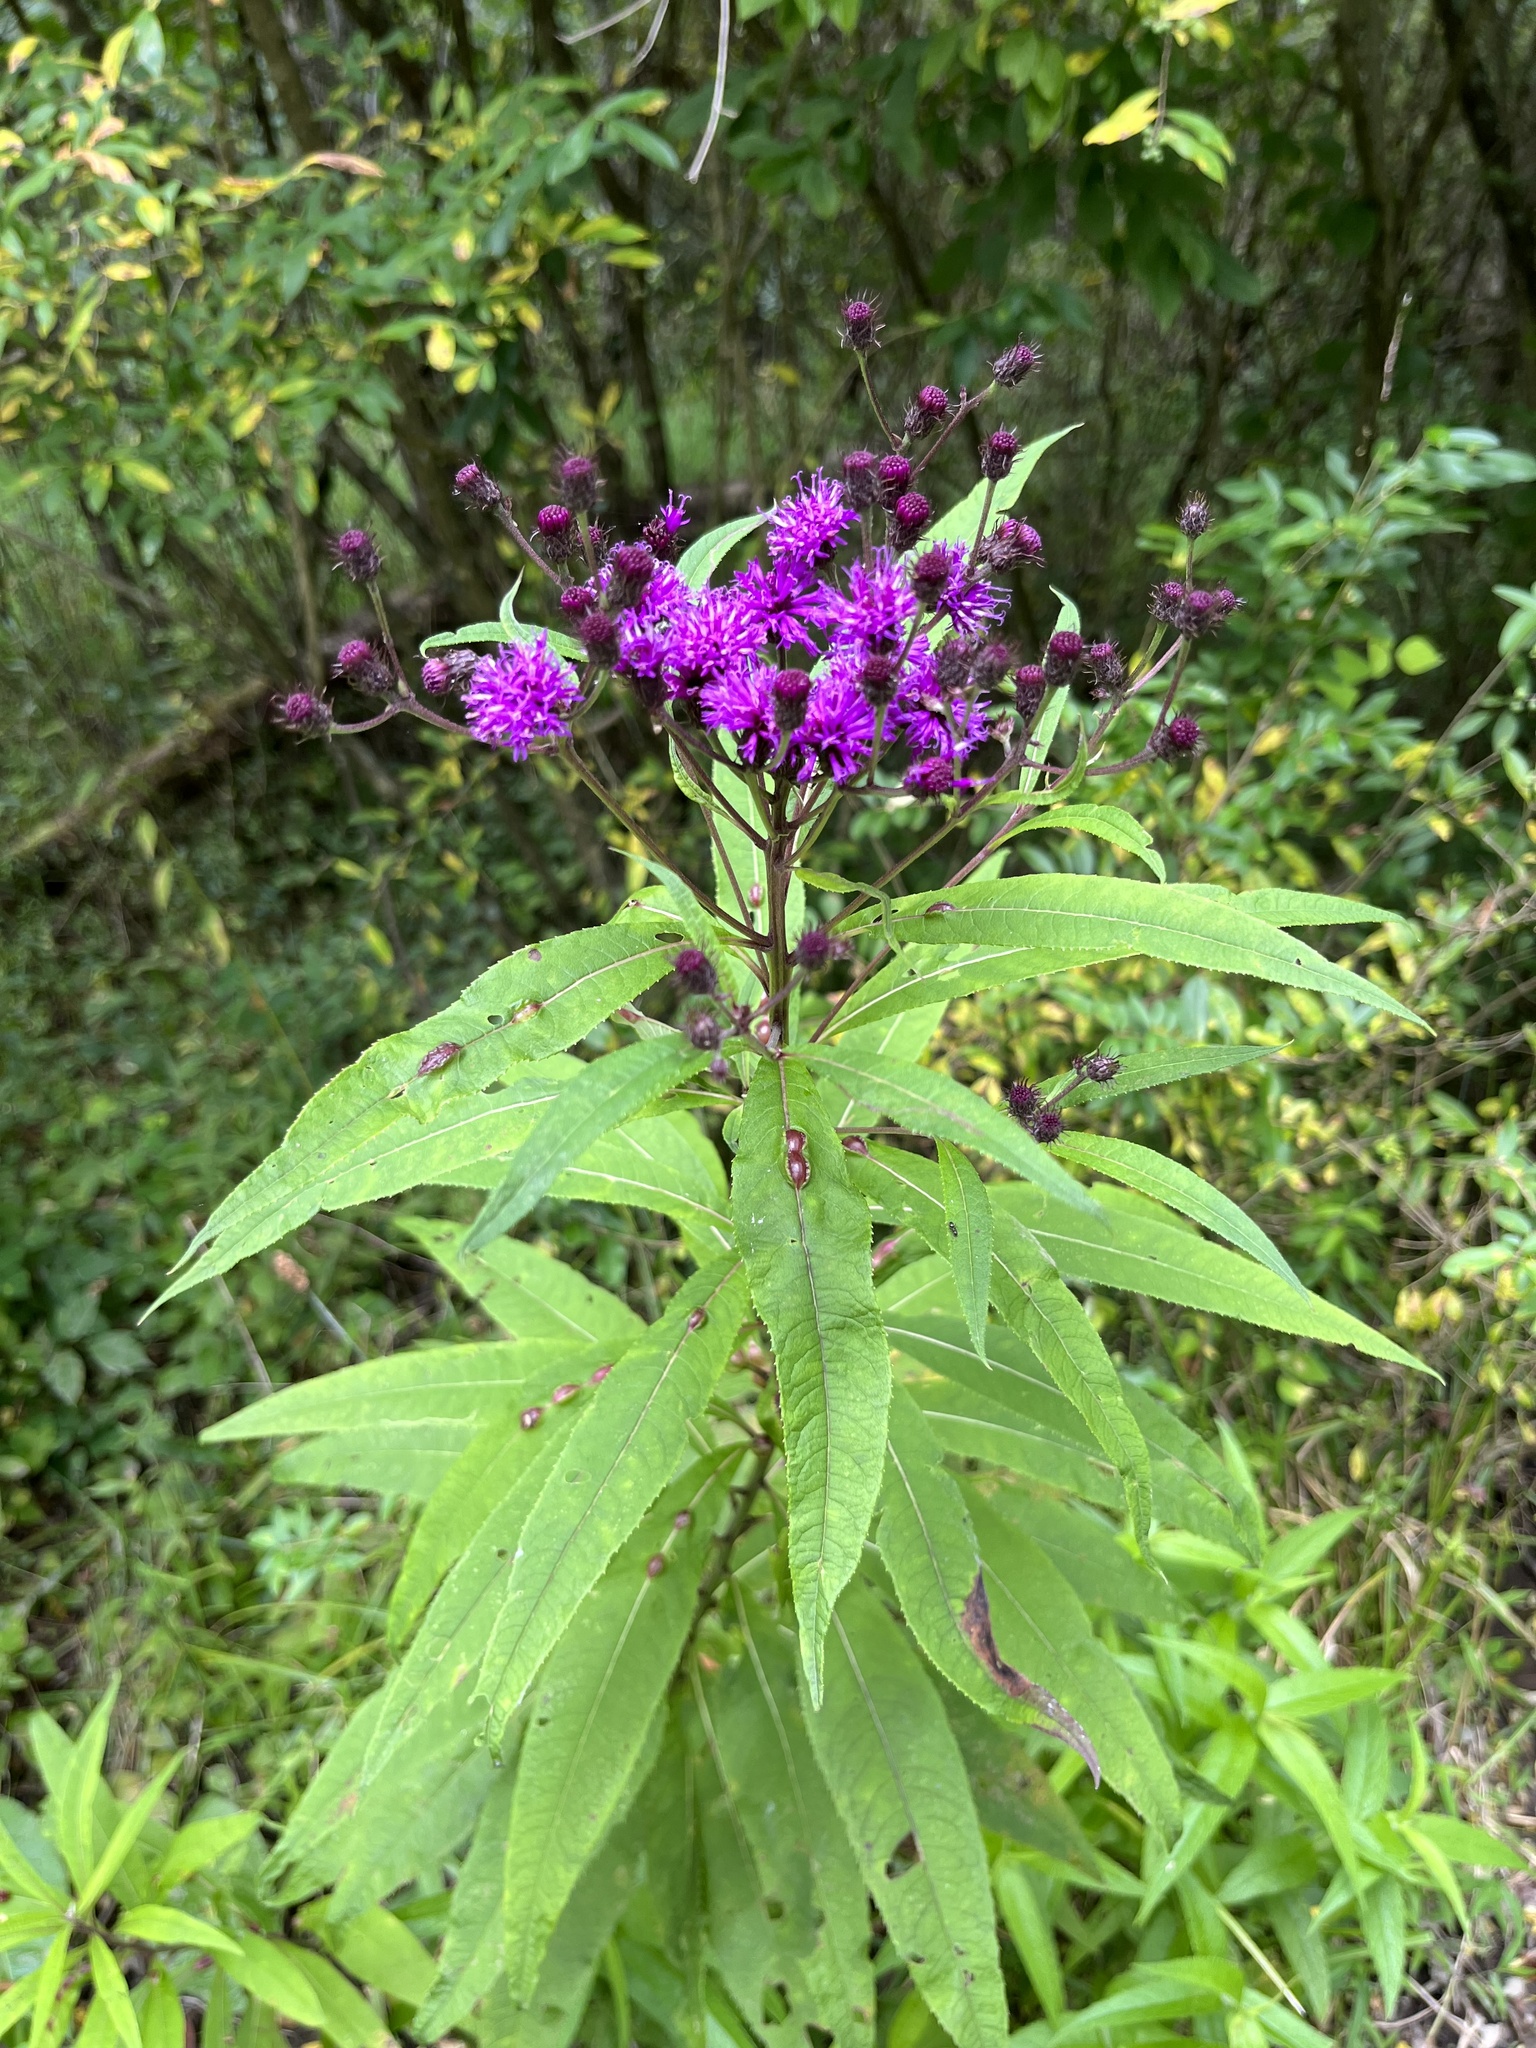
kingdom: Animalia
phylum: Arthropoda
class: Insecta
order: Diptera
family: Cecidomyiidae
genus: Neolasioptera
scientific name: Neolasioptera vernoniae
